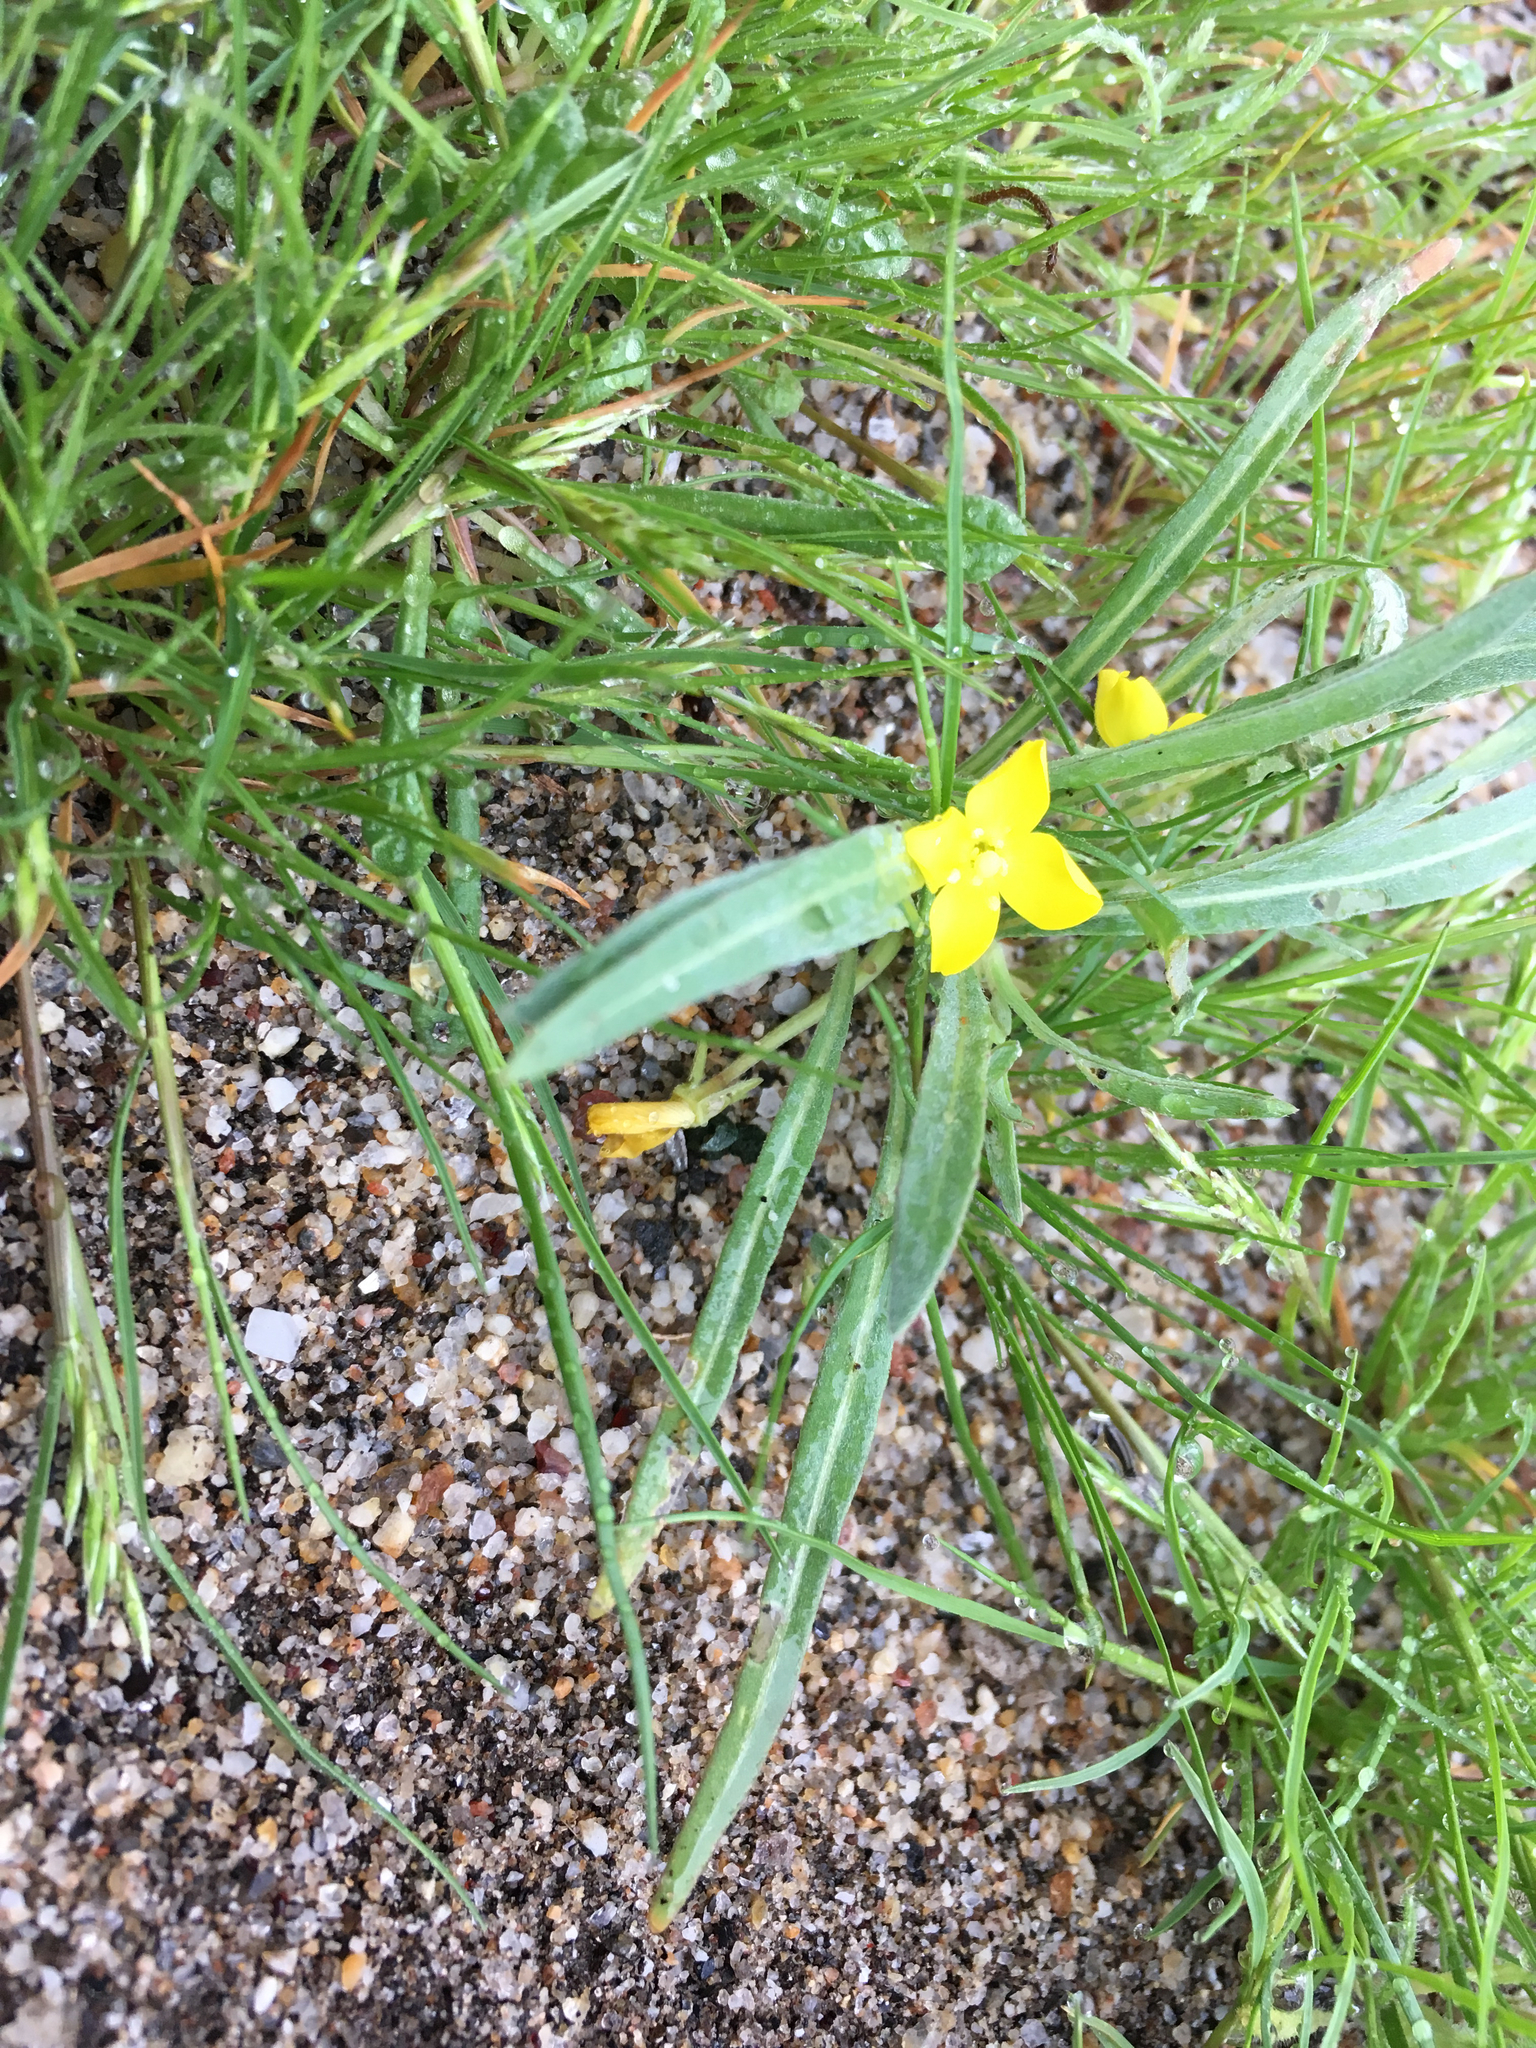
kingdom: Plantae
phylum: Tracheophyta
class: Magnoliopsida
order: Myrtales
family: Onagraceae
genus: Camissoniopsis
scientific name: Camissoniopsis pallida
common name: Paleyellow suncup
